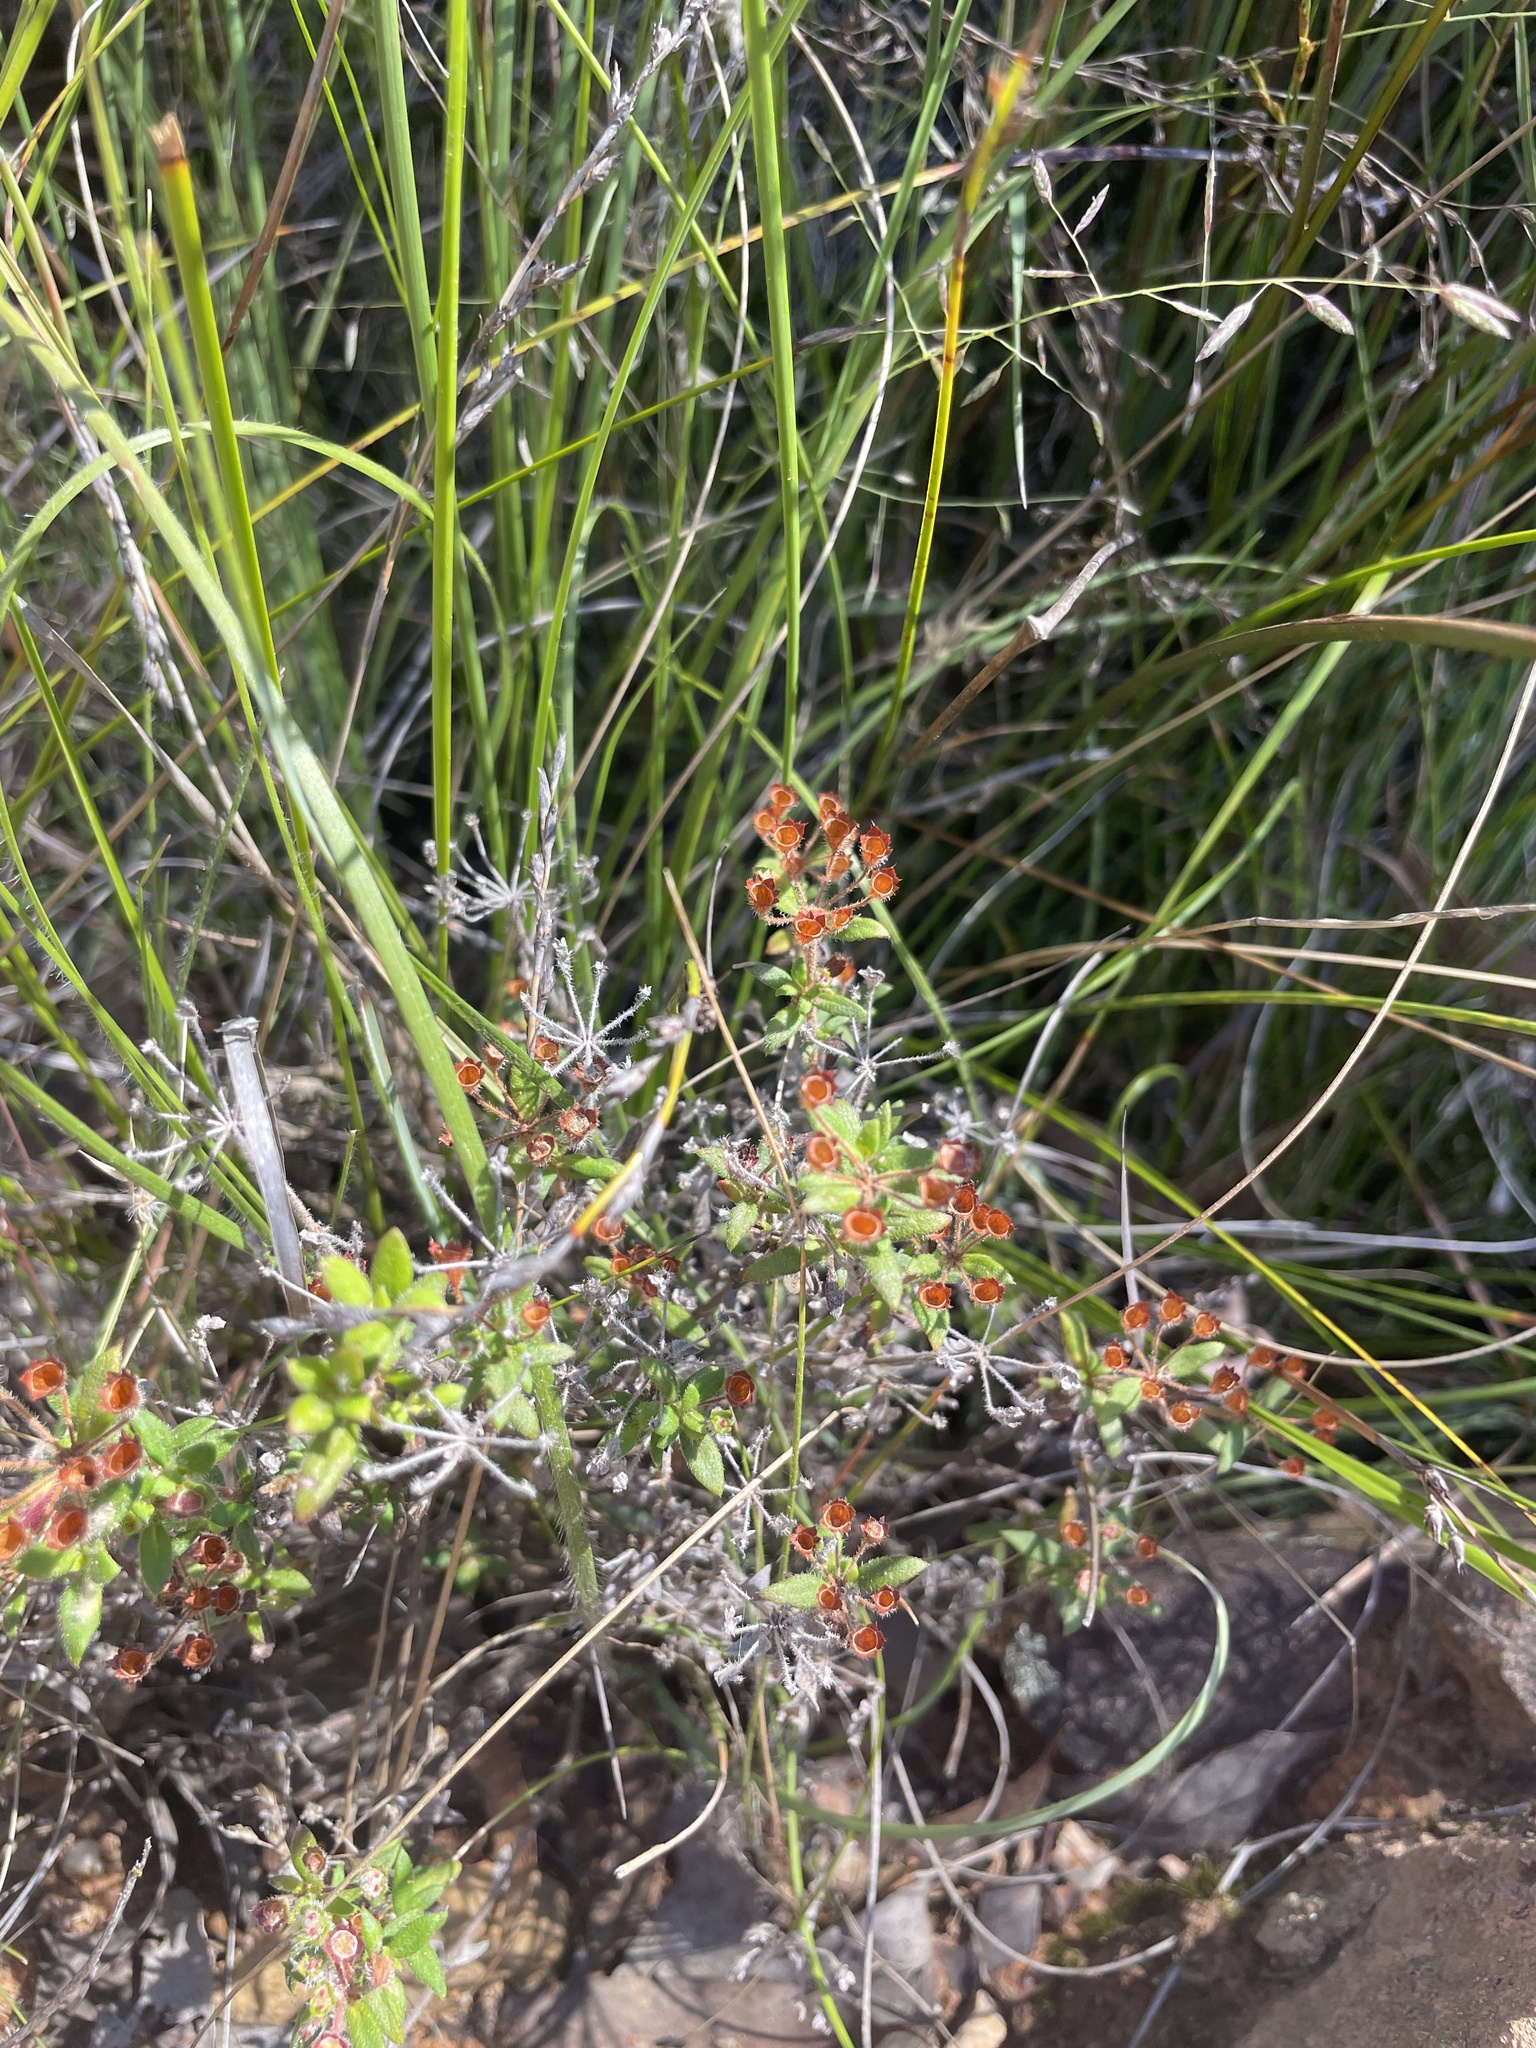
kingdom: Plantae
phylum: Tracheophyta
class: Magnoliopsida
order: Gentianales
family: Rubiaceae
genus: Pomax
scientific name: Pomax umbellata
